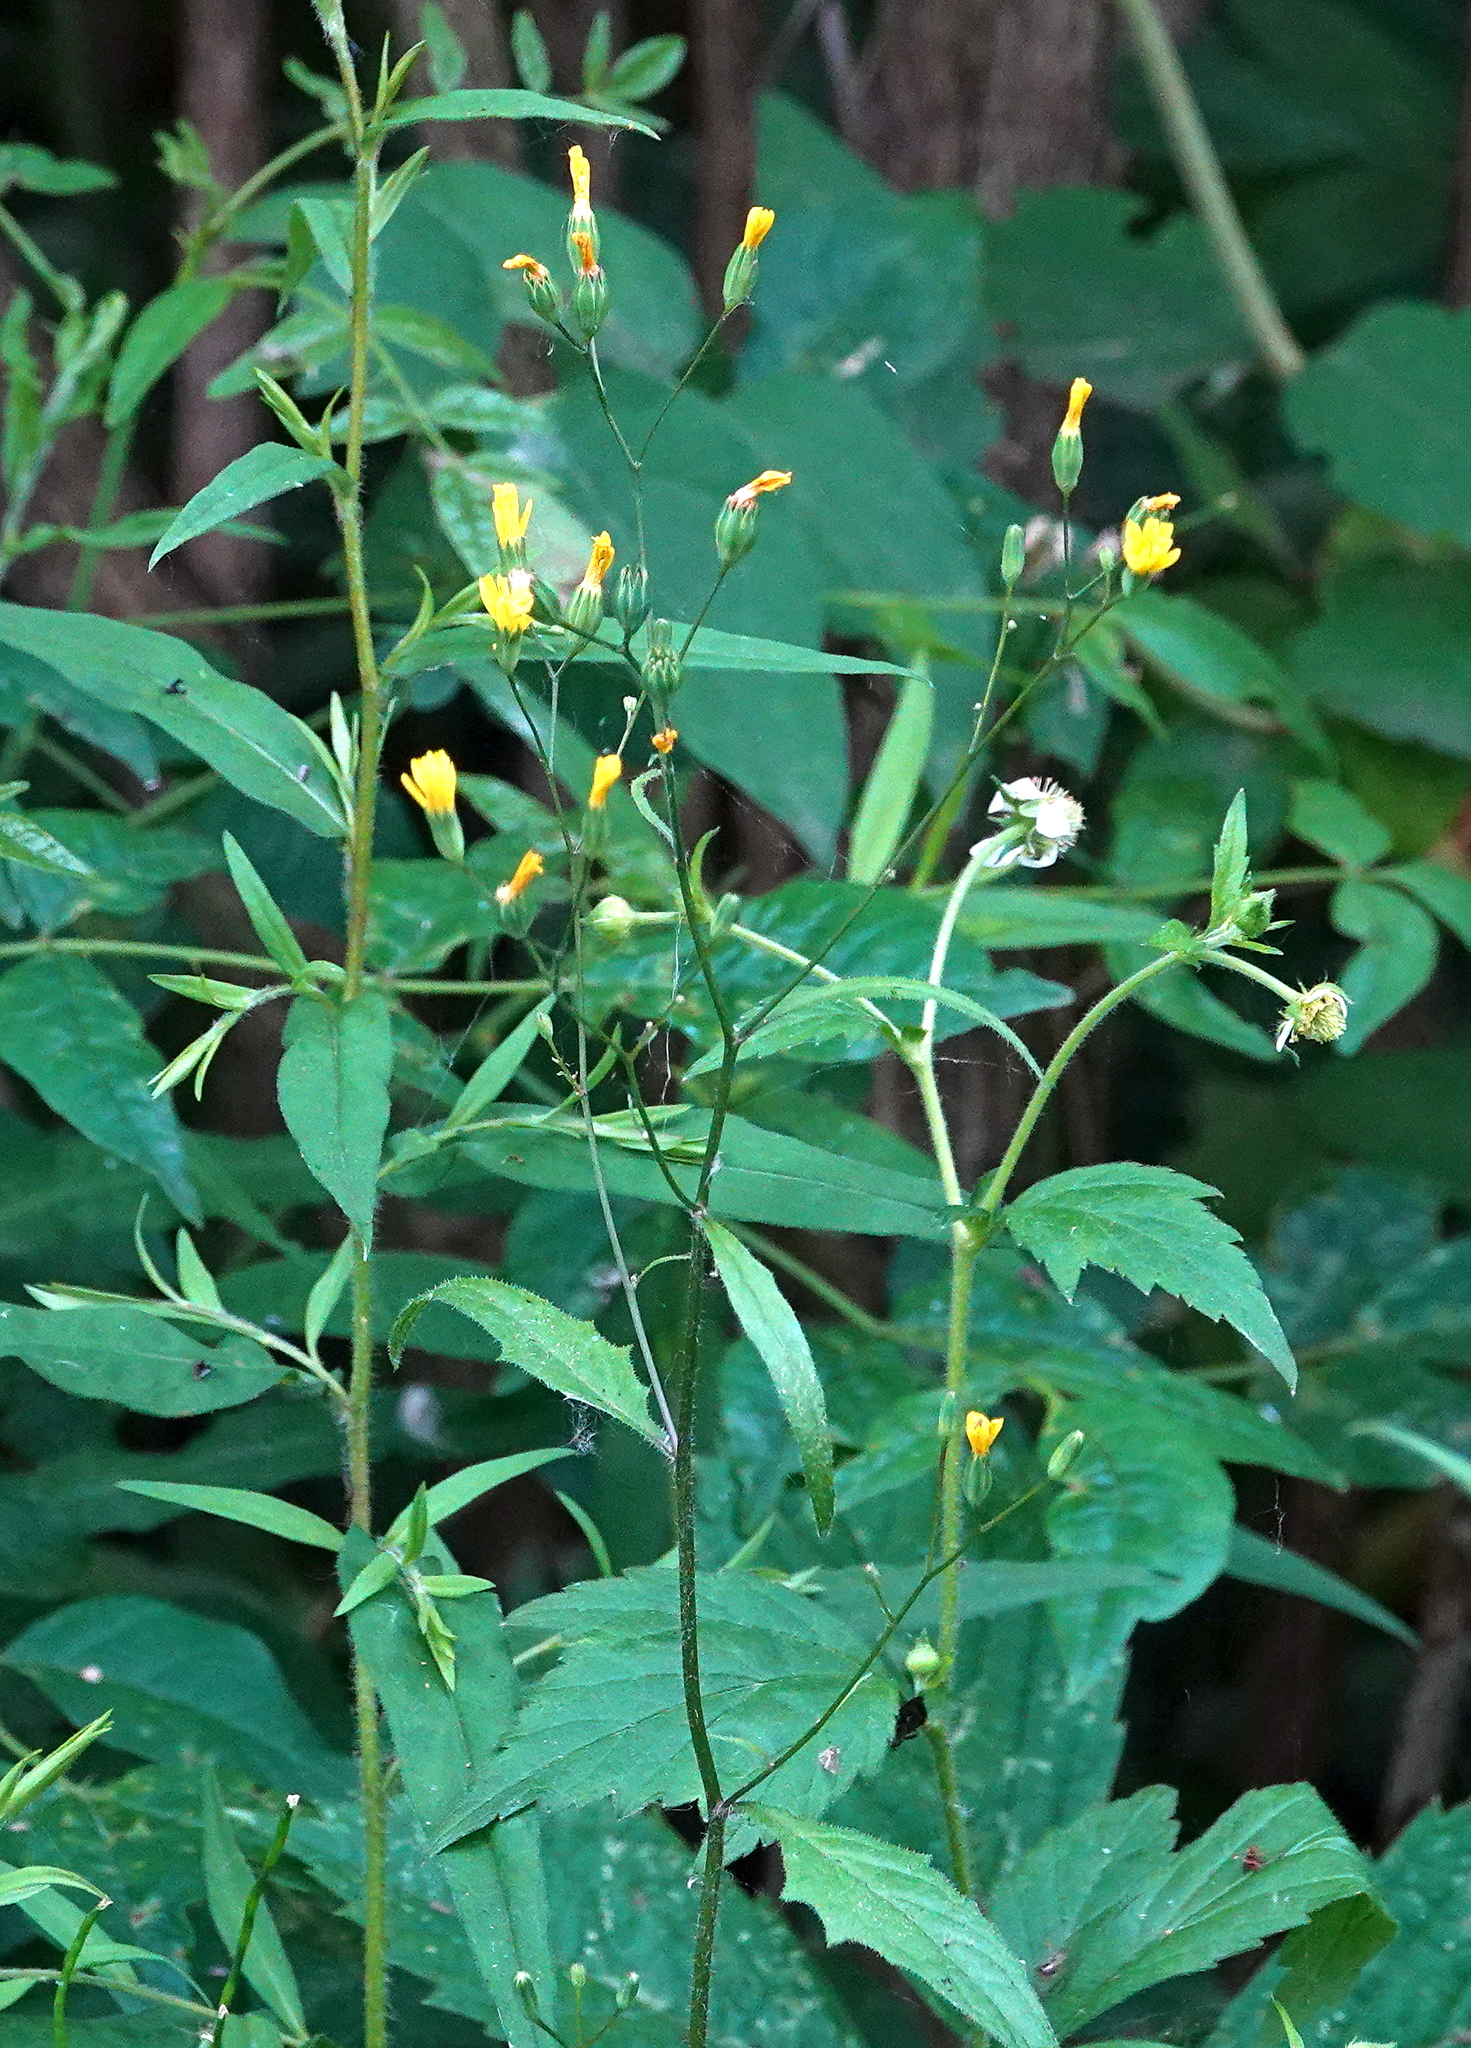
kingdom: Plantae
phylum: Tracheophyta
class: Magnoliopsida
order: Asterales
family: Asteraceae
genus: Lapsana
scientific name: Lapsana communis
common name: Nipplewort
